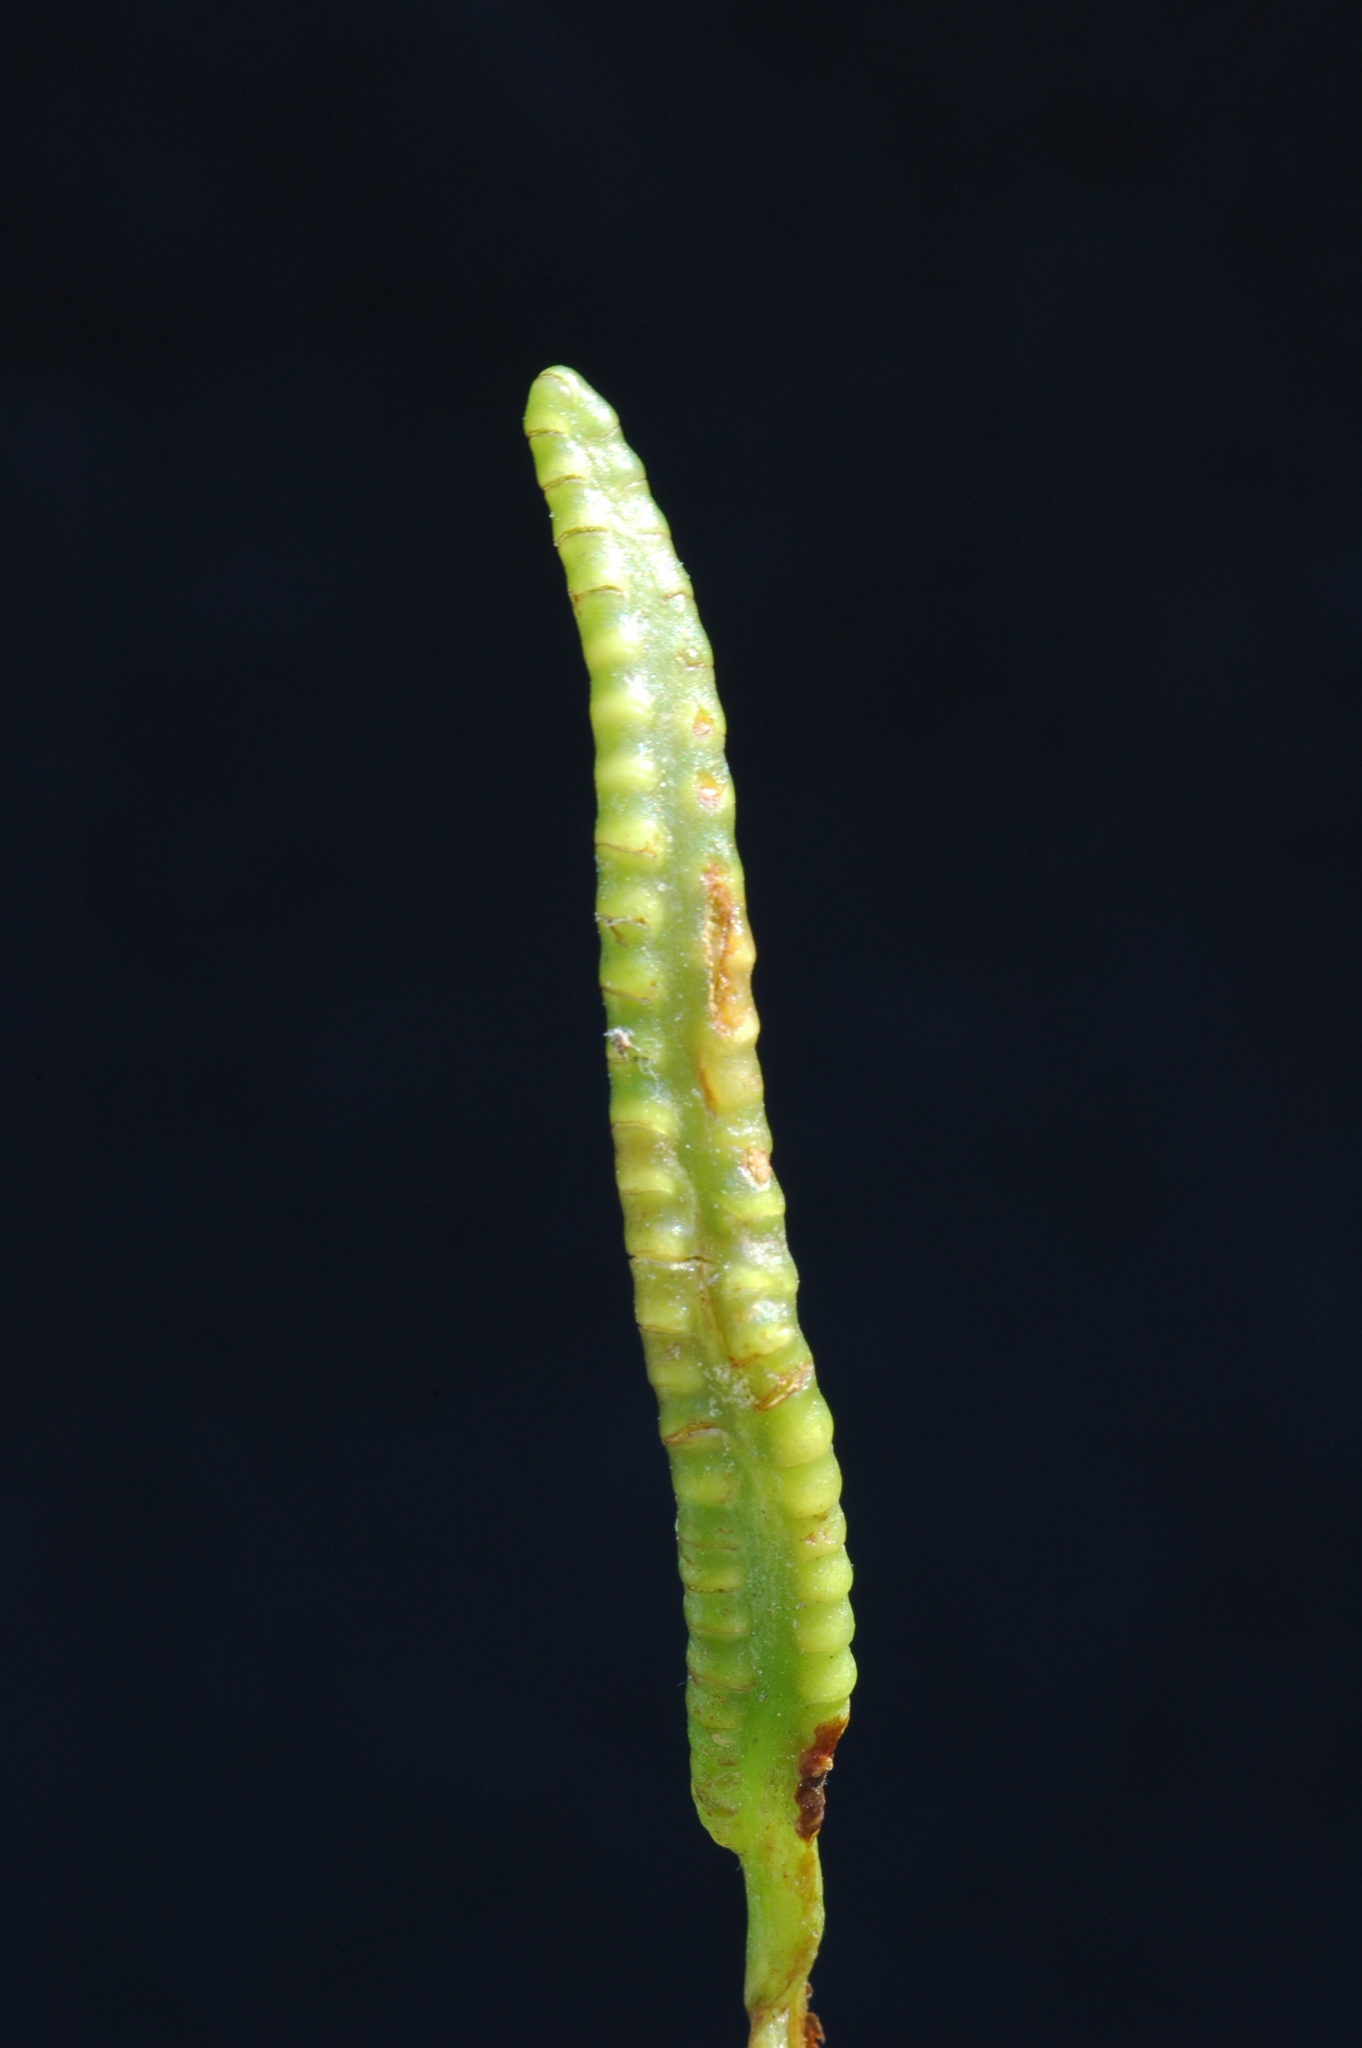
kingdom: Plantae
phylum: Tracheophyta
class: Polypodiopsida
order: Ophioglossales
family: Ophioglossaceae
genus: Ophioglossum
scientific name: Ophioglossum pusillum
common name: Northern adder's-tongue
